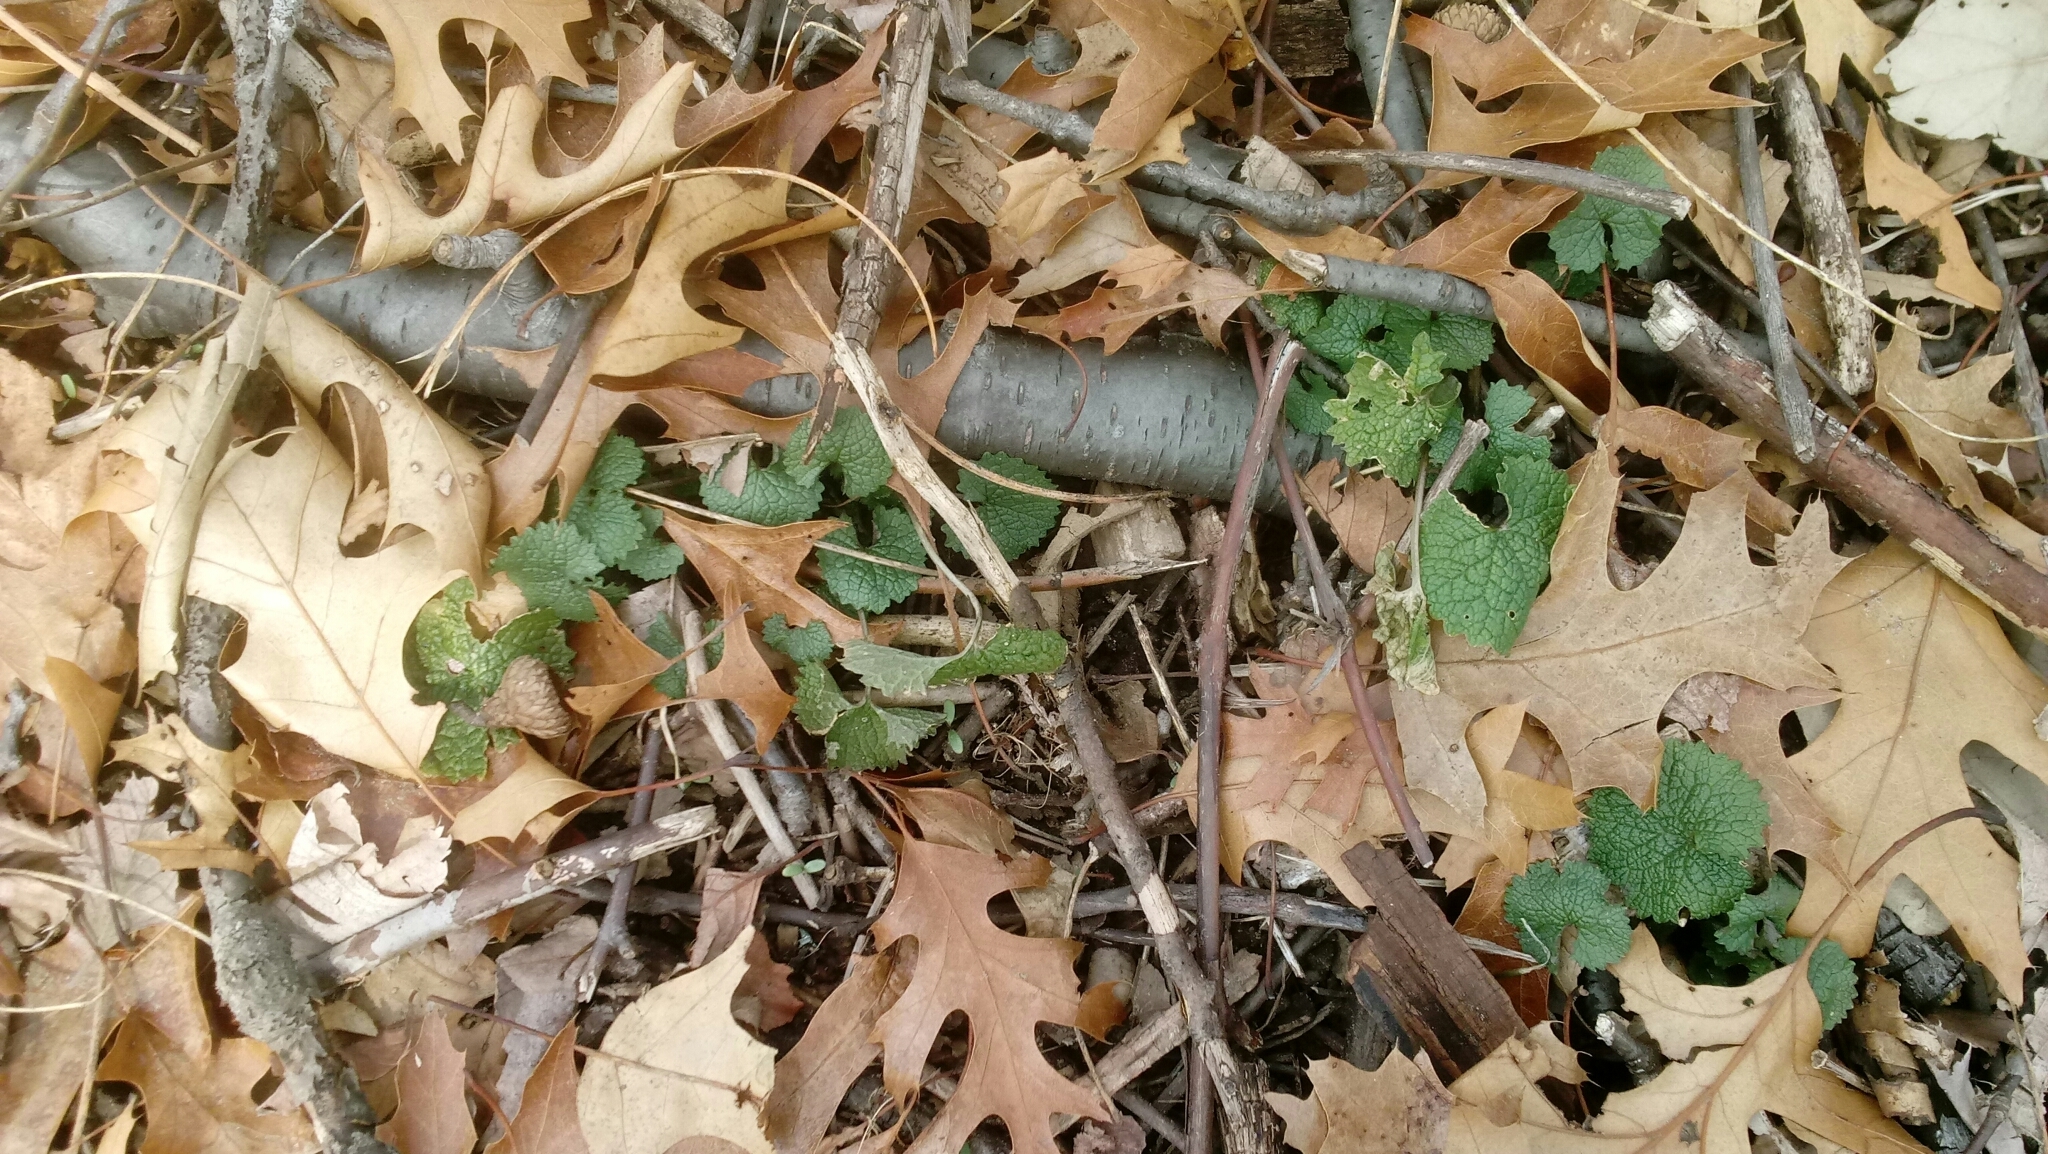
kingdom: Plantae
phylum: Tracheophyta
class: Magnoliopsida
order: Brassicales
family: Brassicaceae
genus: Alliaria
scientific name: Alliaria petiolata
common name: Garlic mustard
